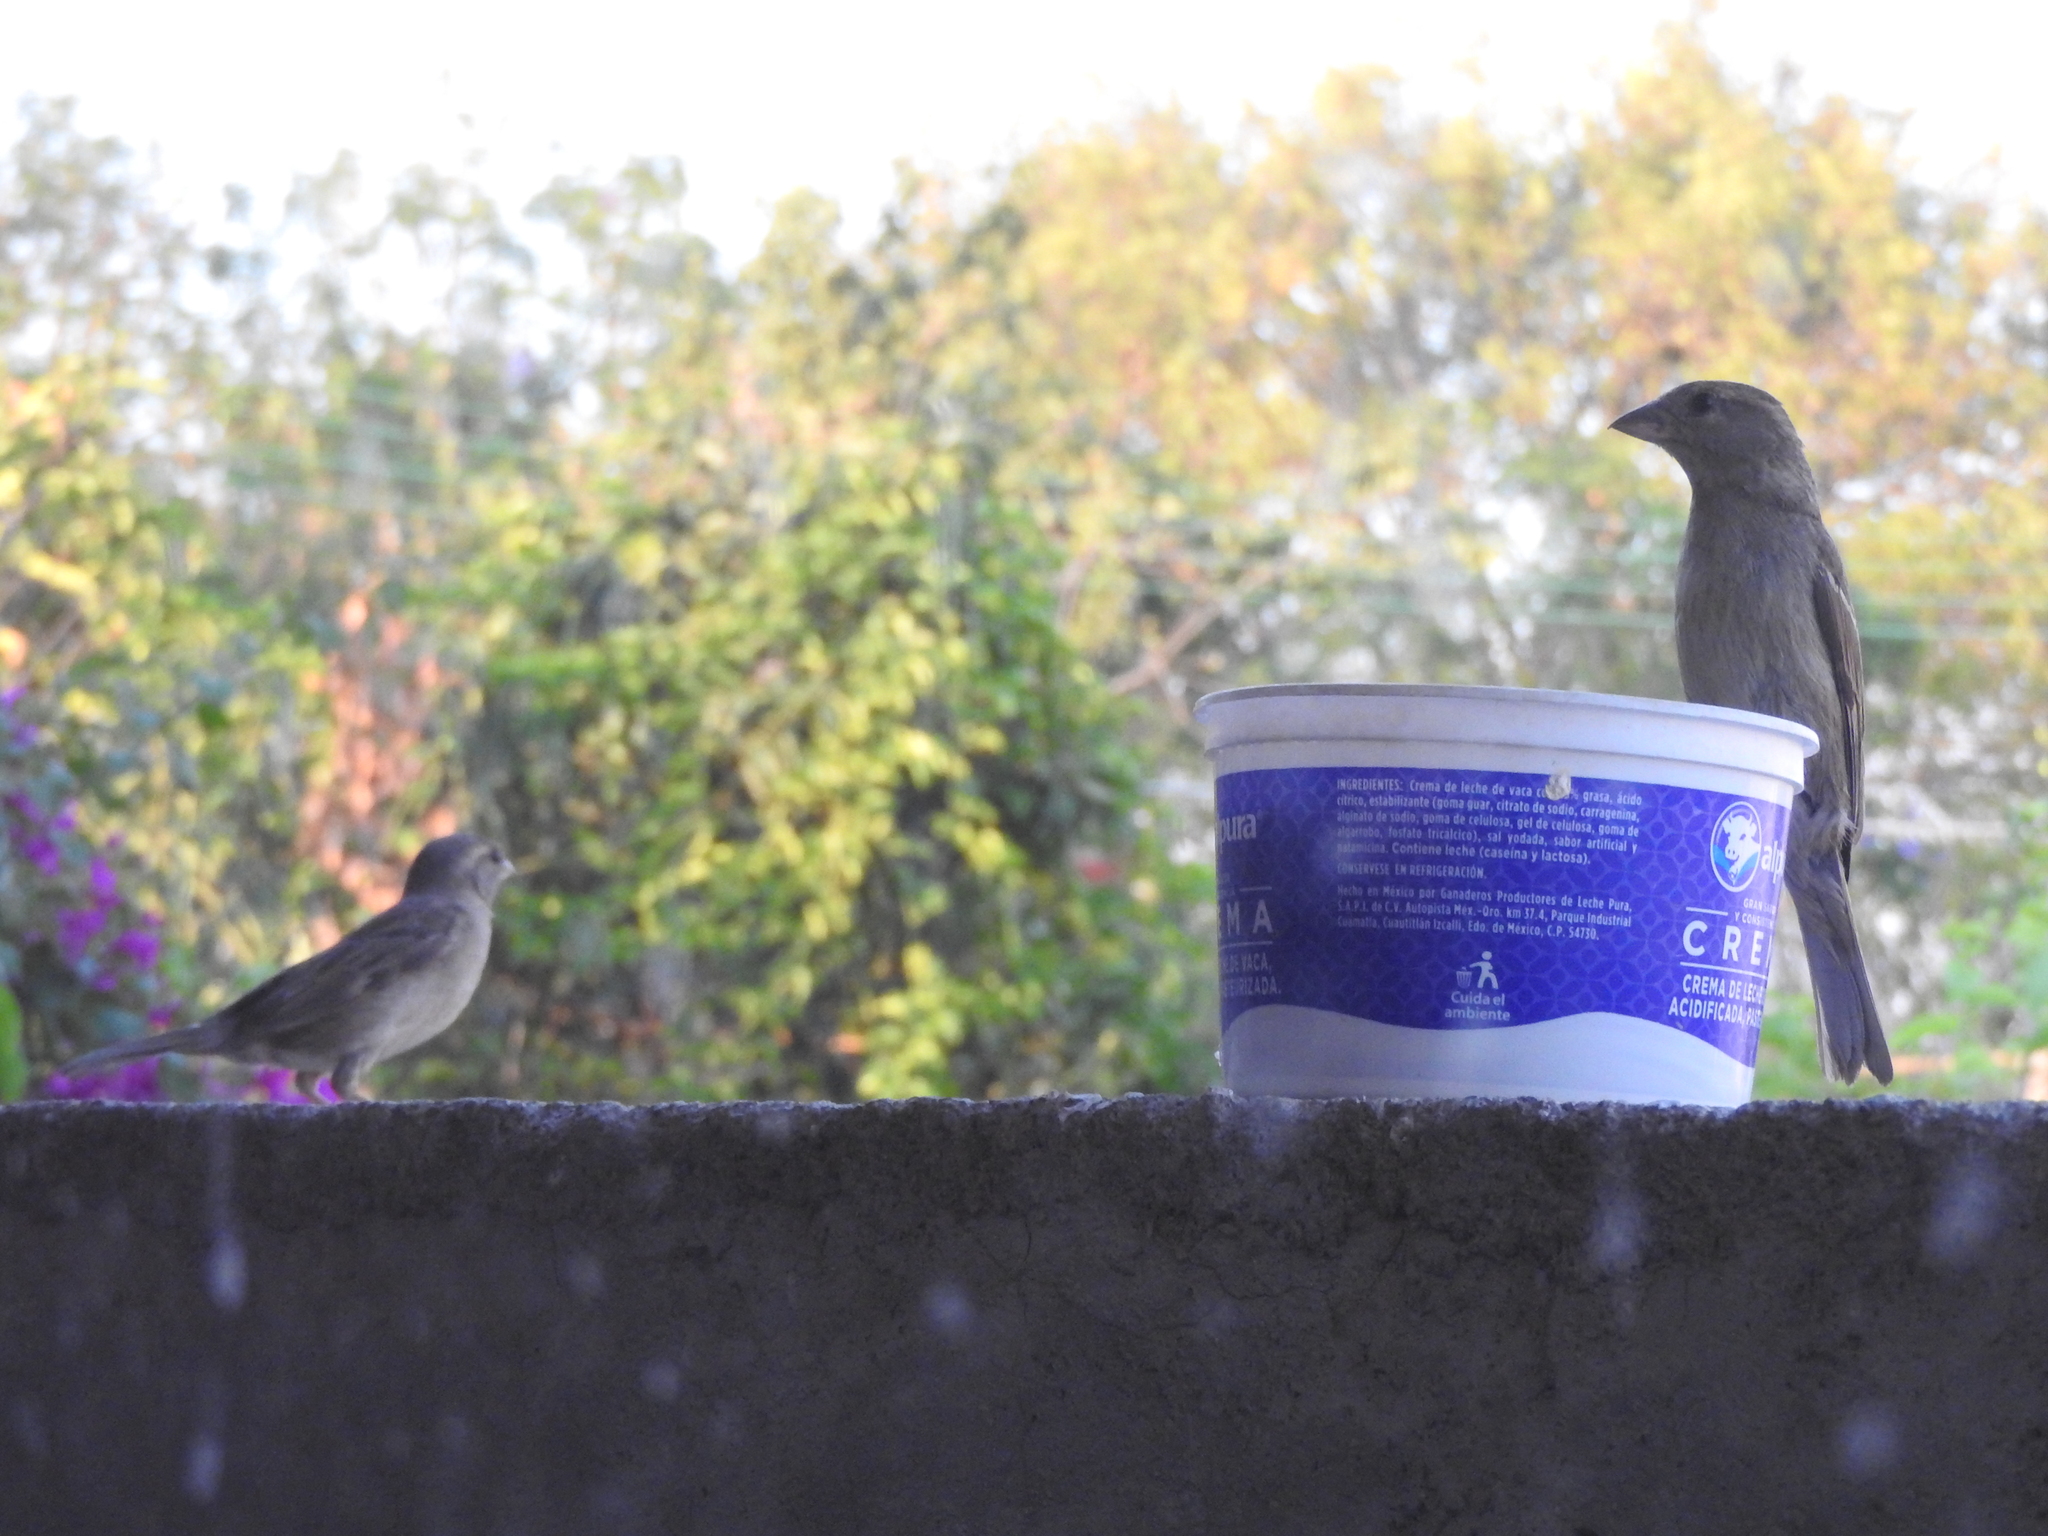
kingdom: Animalia
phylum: Chordata
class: Aves
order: Passeriformes
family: Passeridae
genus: Passer
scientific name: Passer domesticus
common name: House sparrow
